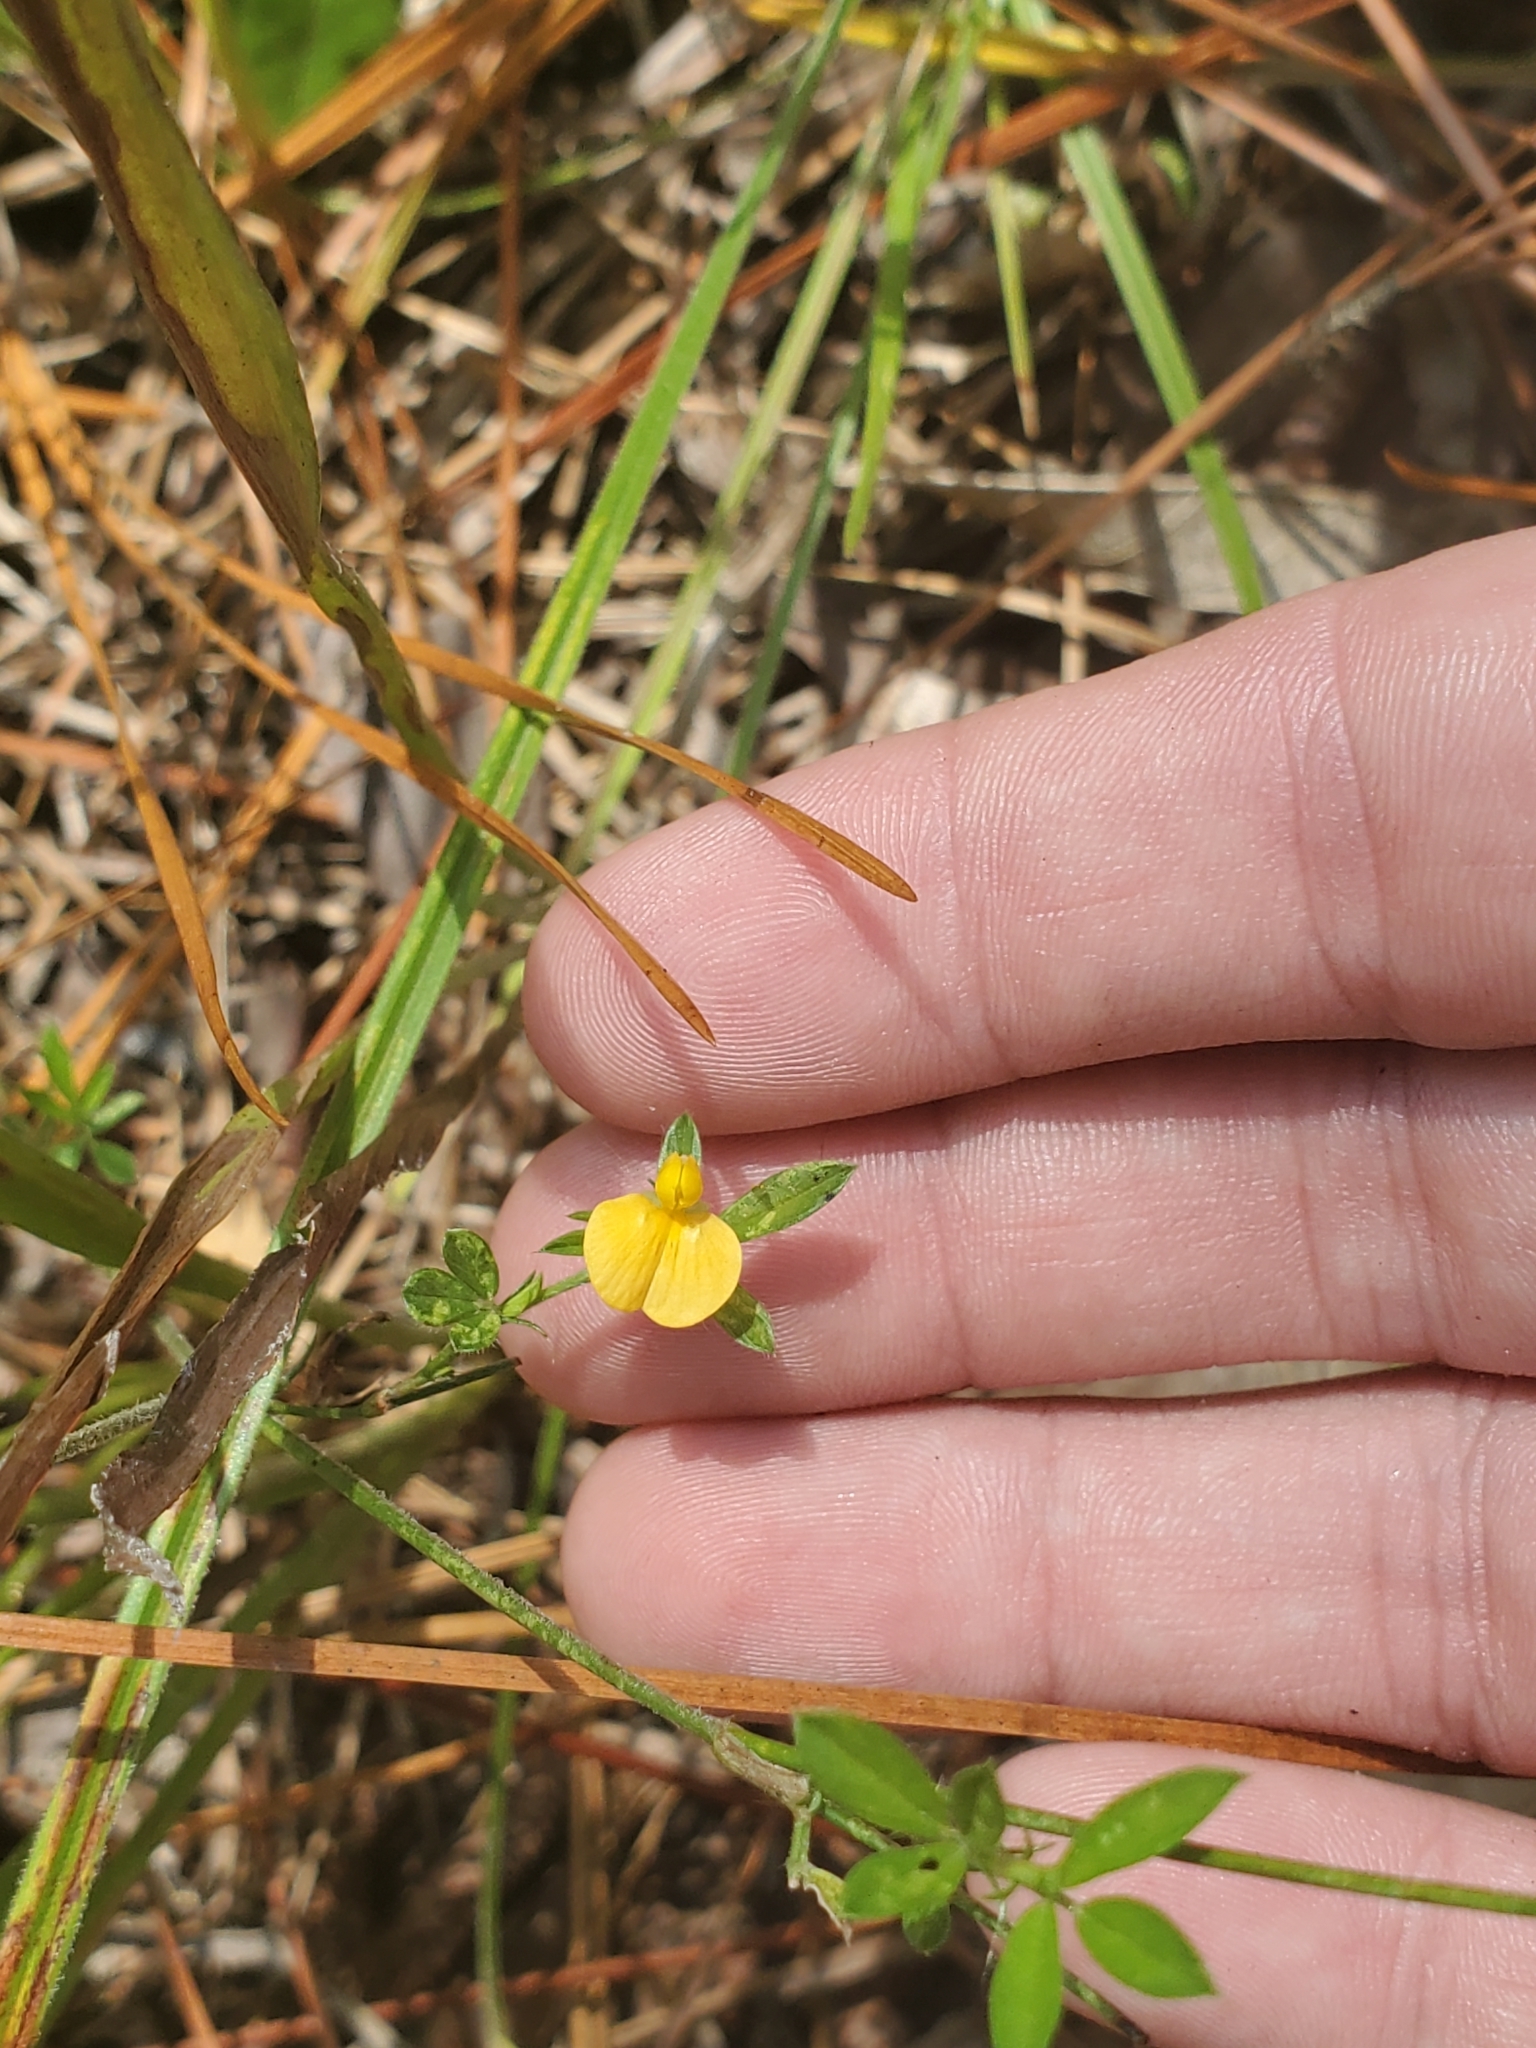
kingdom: Plantae
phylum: Tracheophyta
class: Magnoliopsida
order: Fabales
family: Fabaceae
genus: Stylosanthes
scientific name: Stylosanthes biflora
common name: Two-flower pencil-flower
